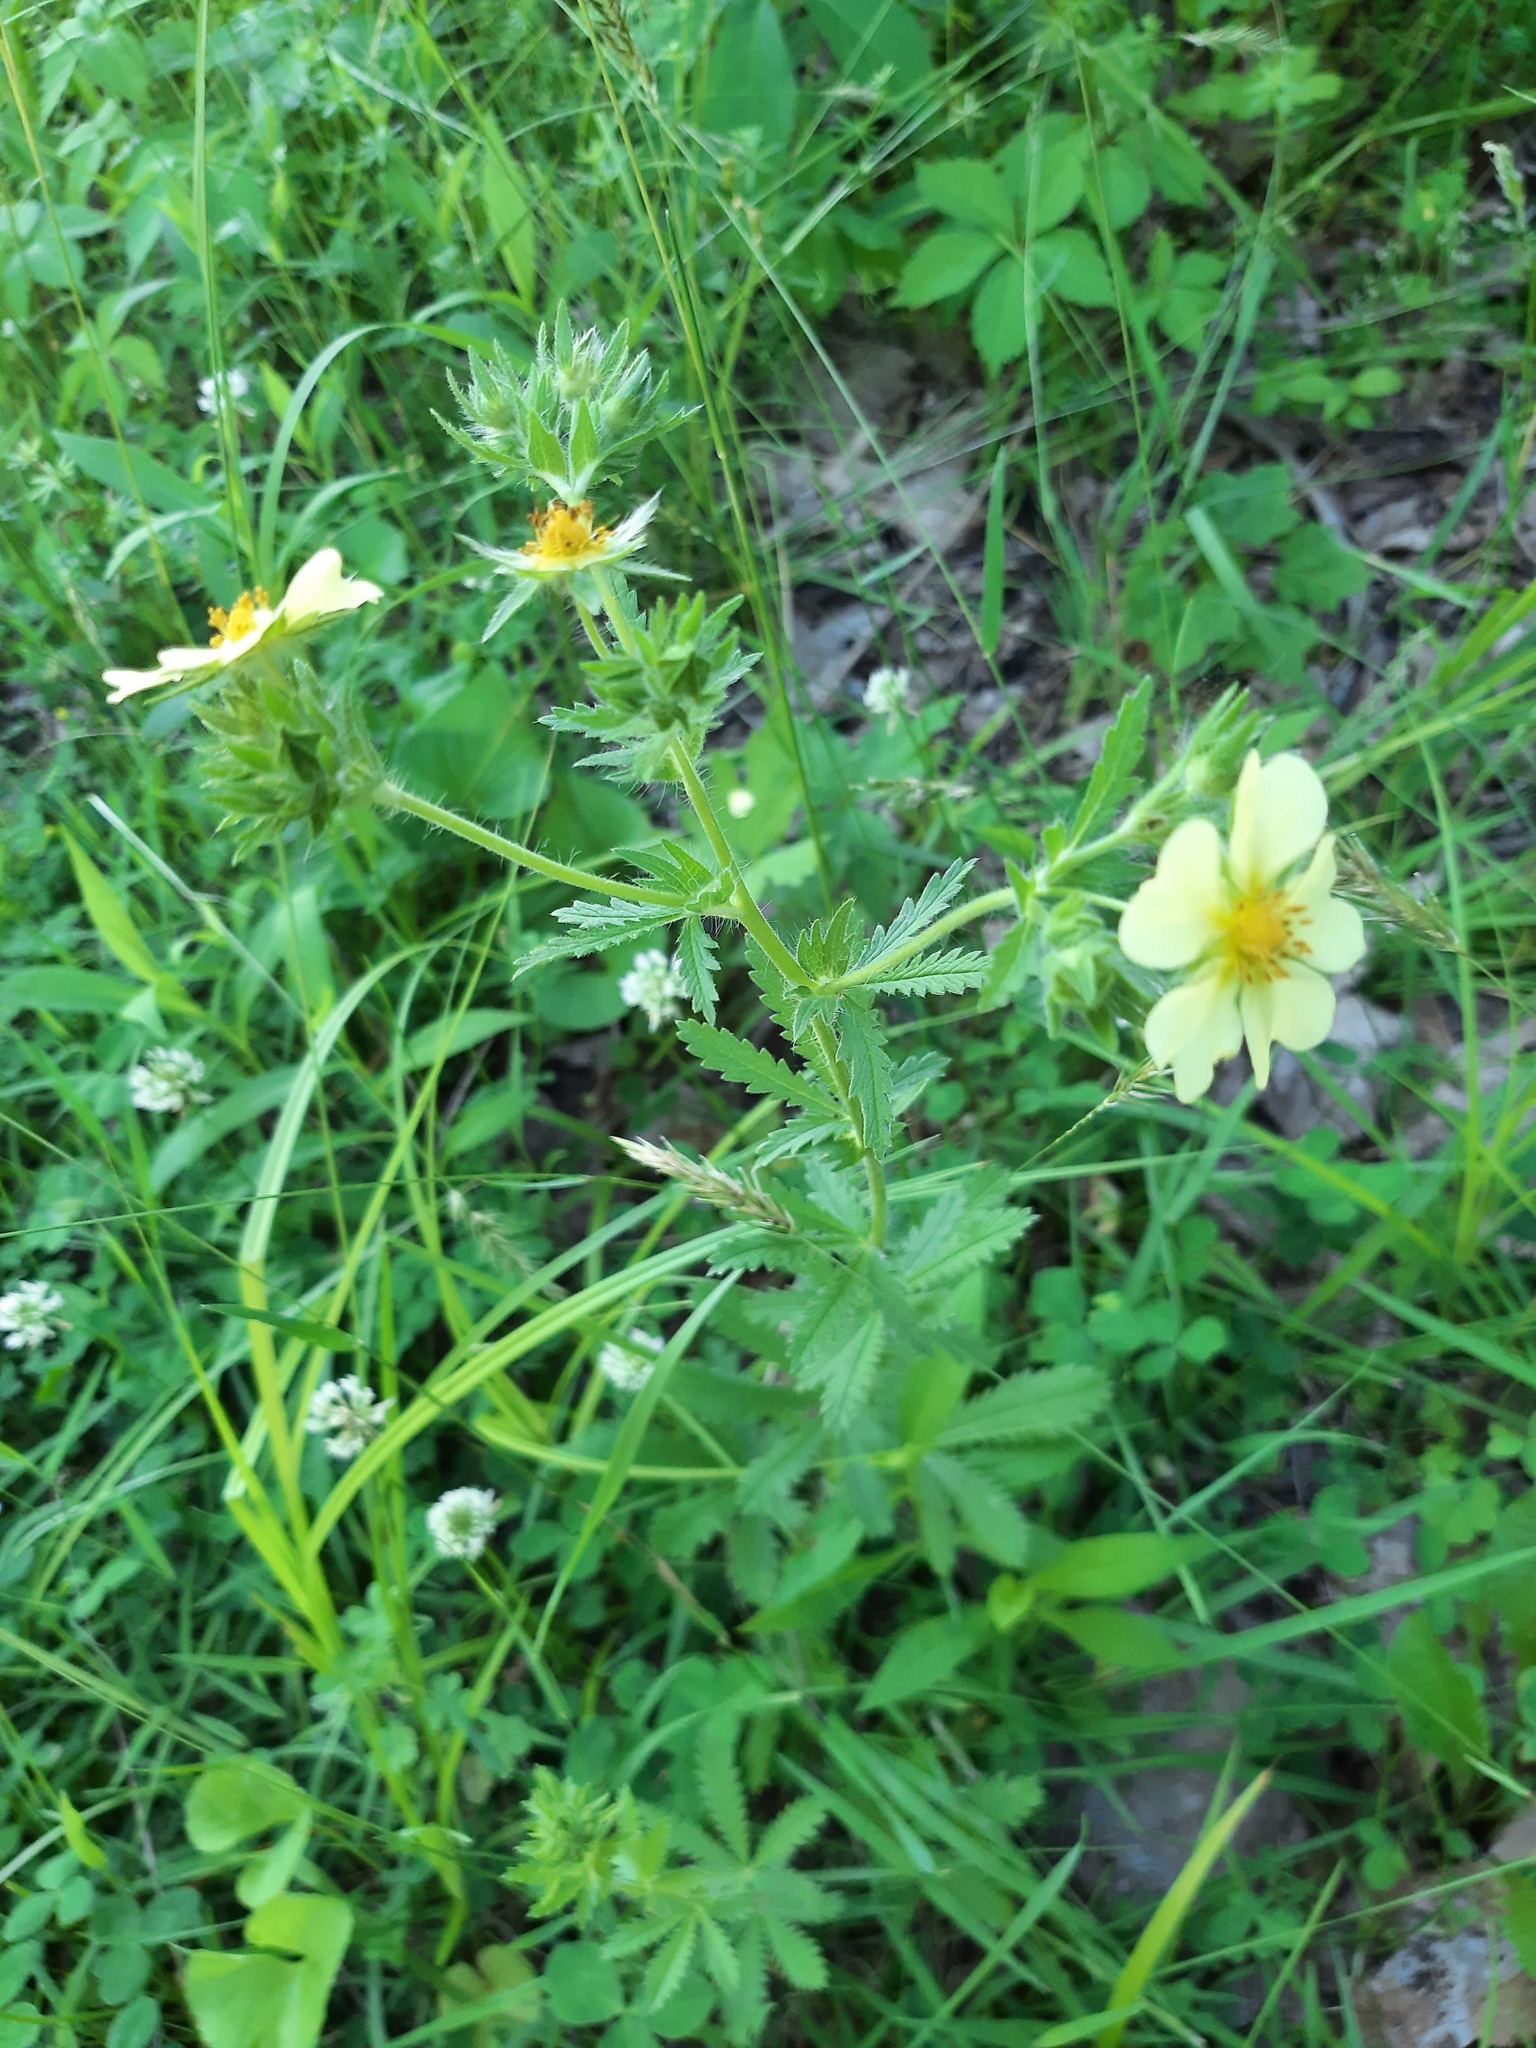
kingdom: Plantae
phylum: Tracheophyta
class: Magnoliopsida
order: Rosales
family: Rosaceae
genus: Potentilla
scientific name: Potentilla recta
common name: Sulphur cinquefoil
